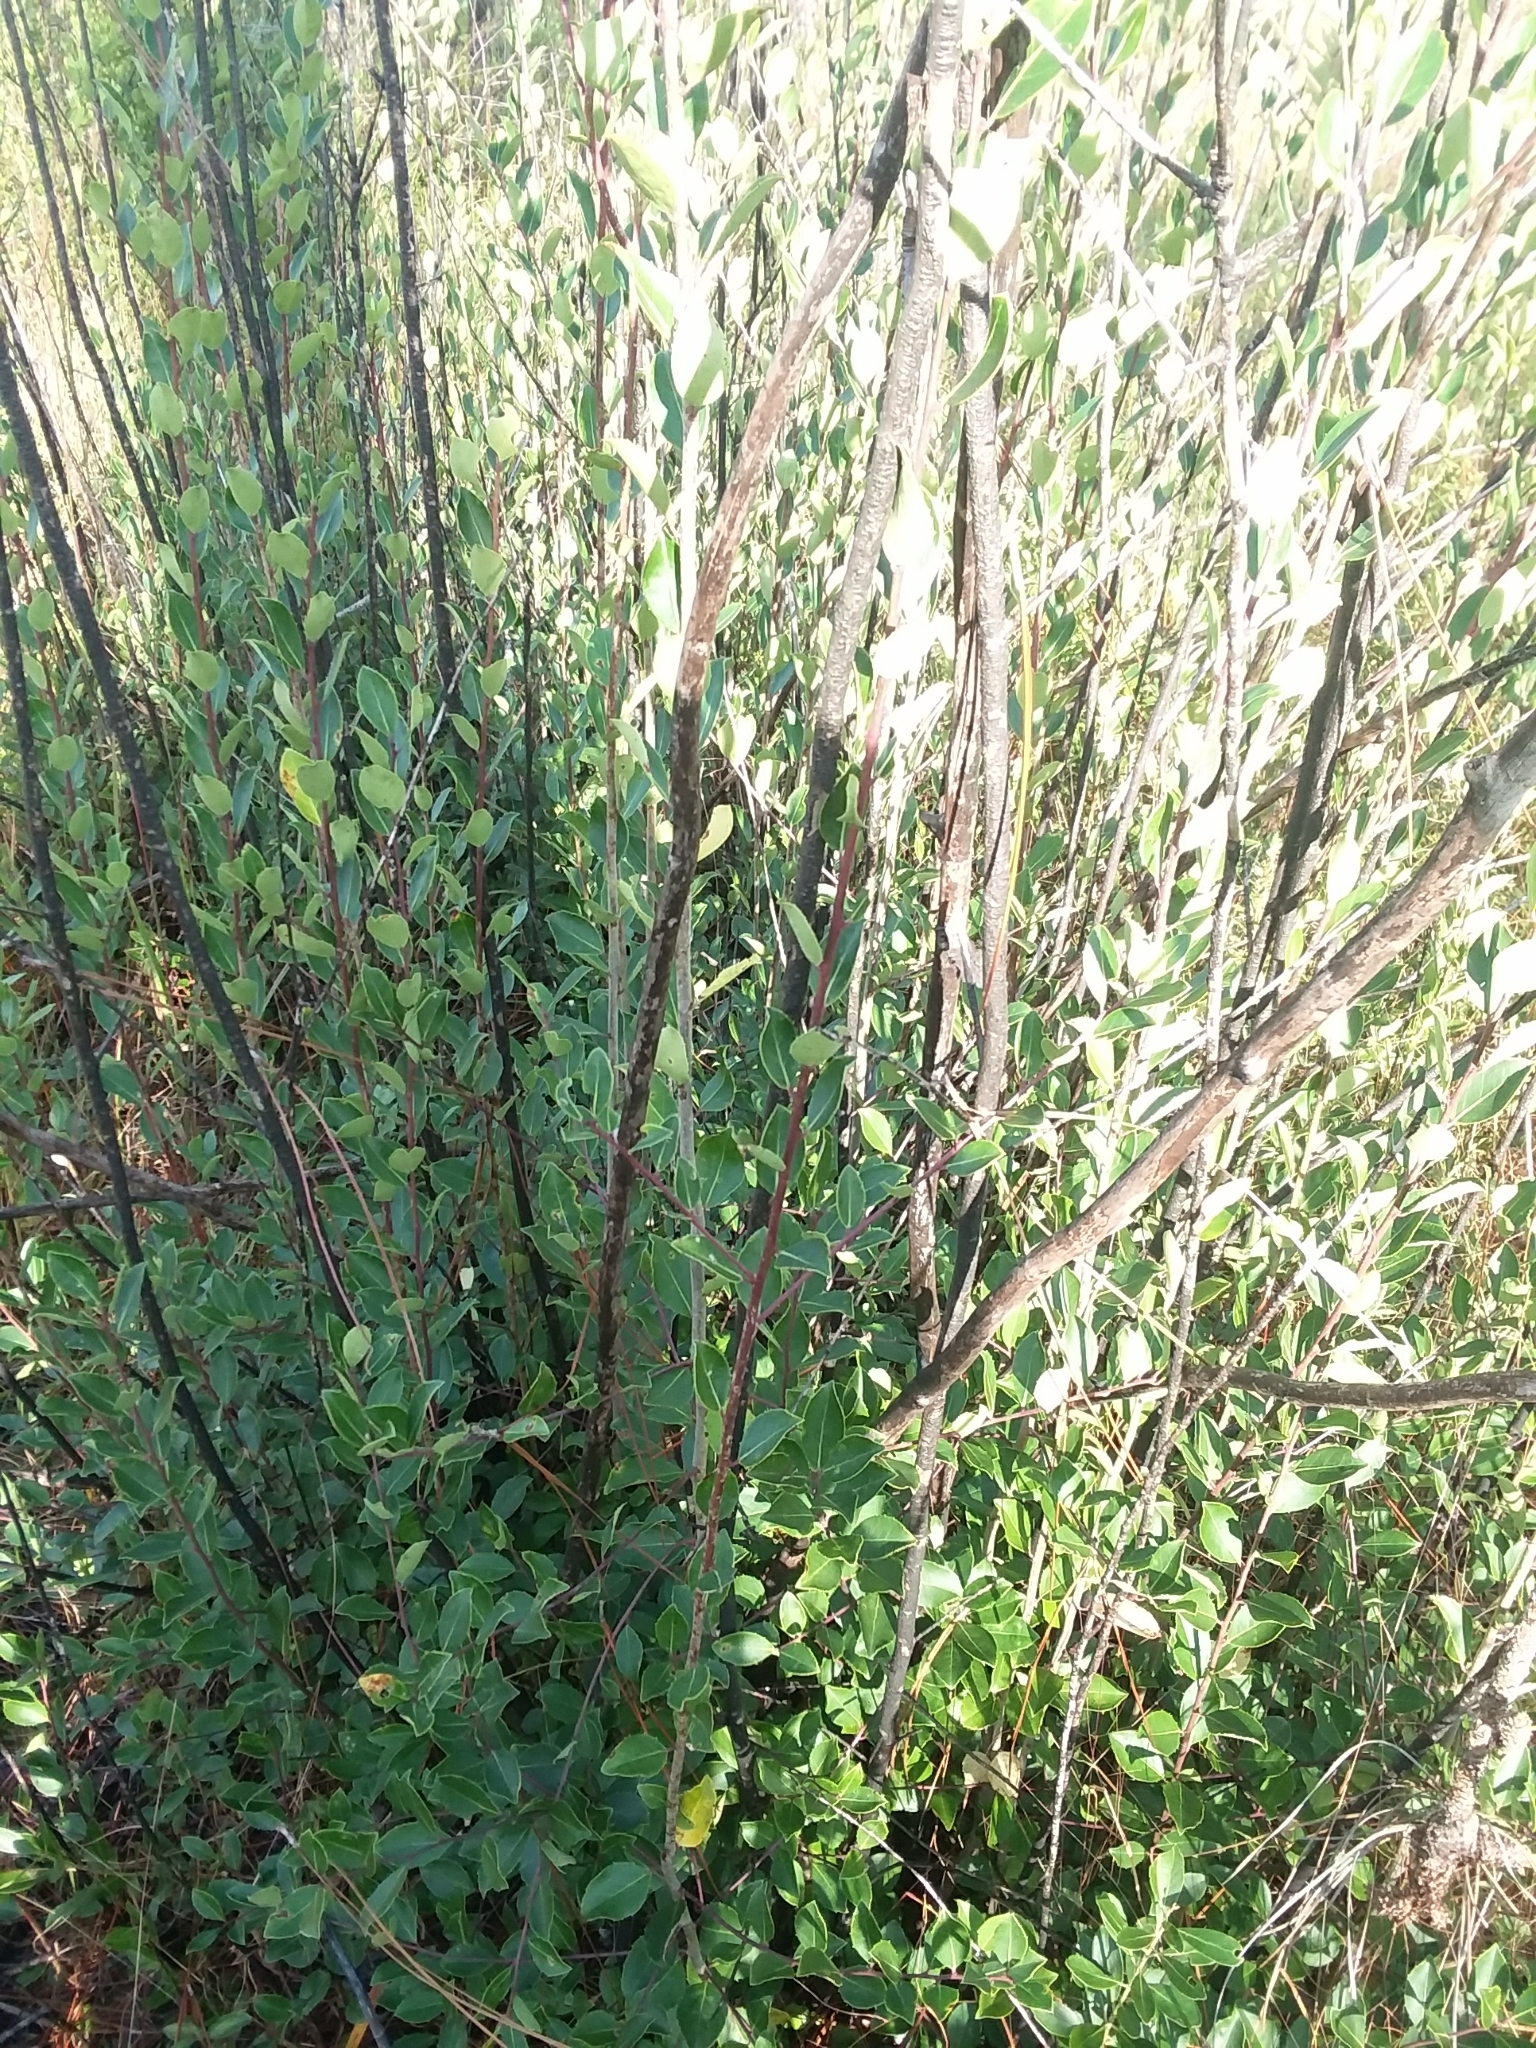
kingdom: Plantae
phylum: Tracheophyta
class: Magnoliopsida
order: Aquifoliales
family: Aquifoliaceae
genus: Ilex
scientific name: Ilex coriacea
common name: Sweet gallberry
